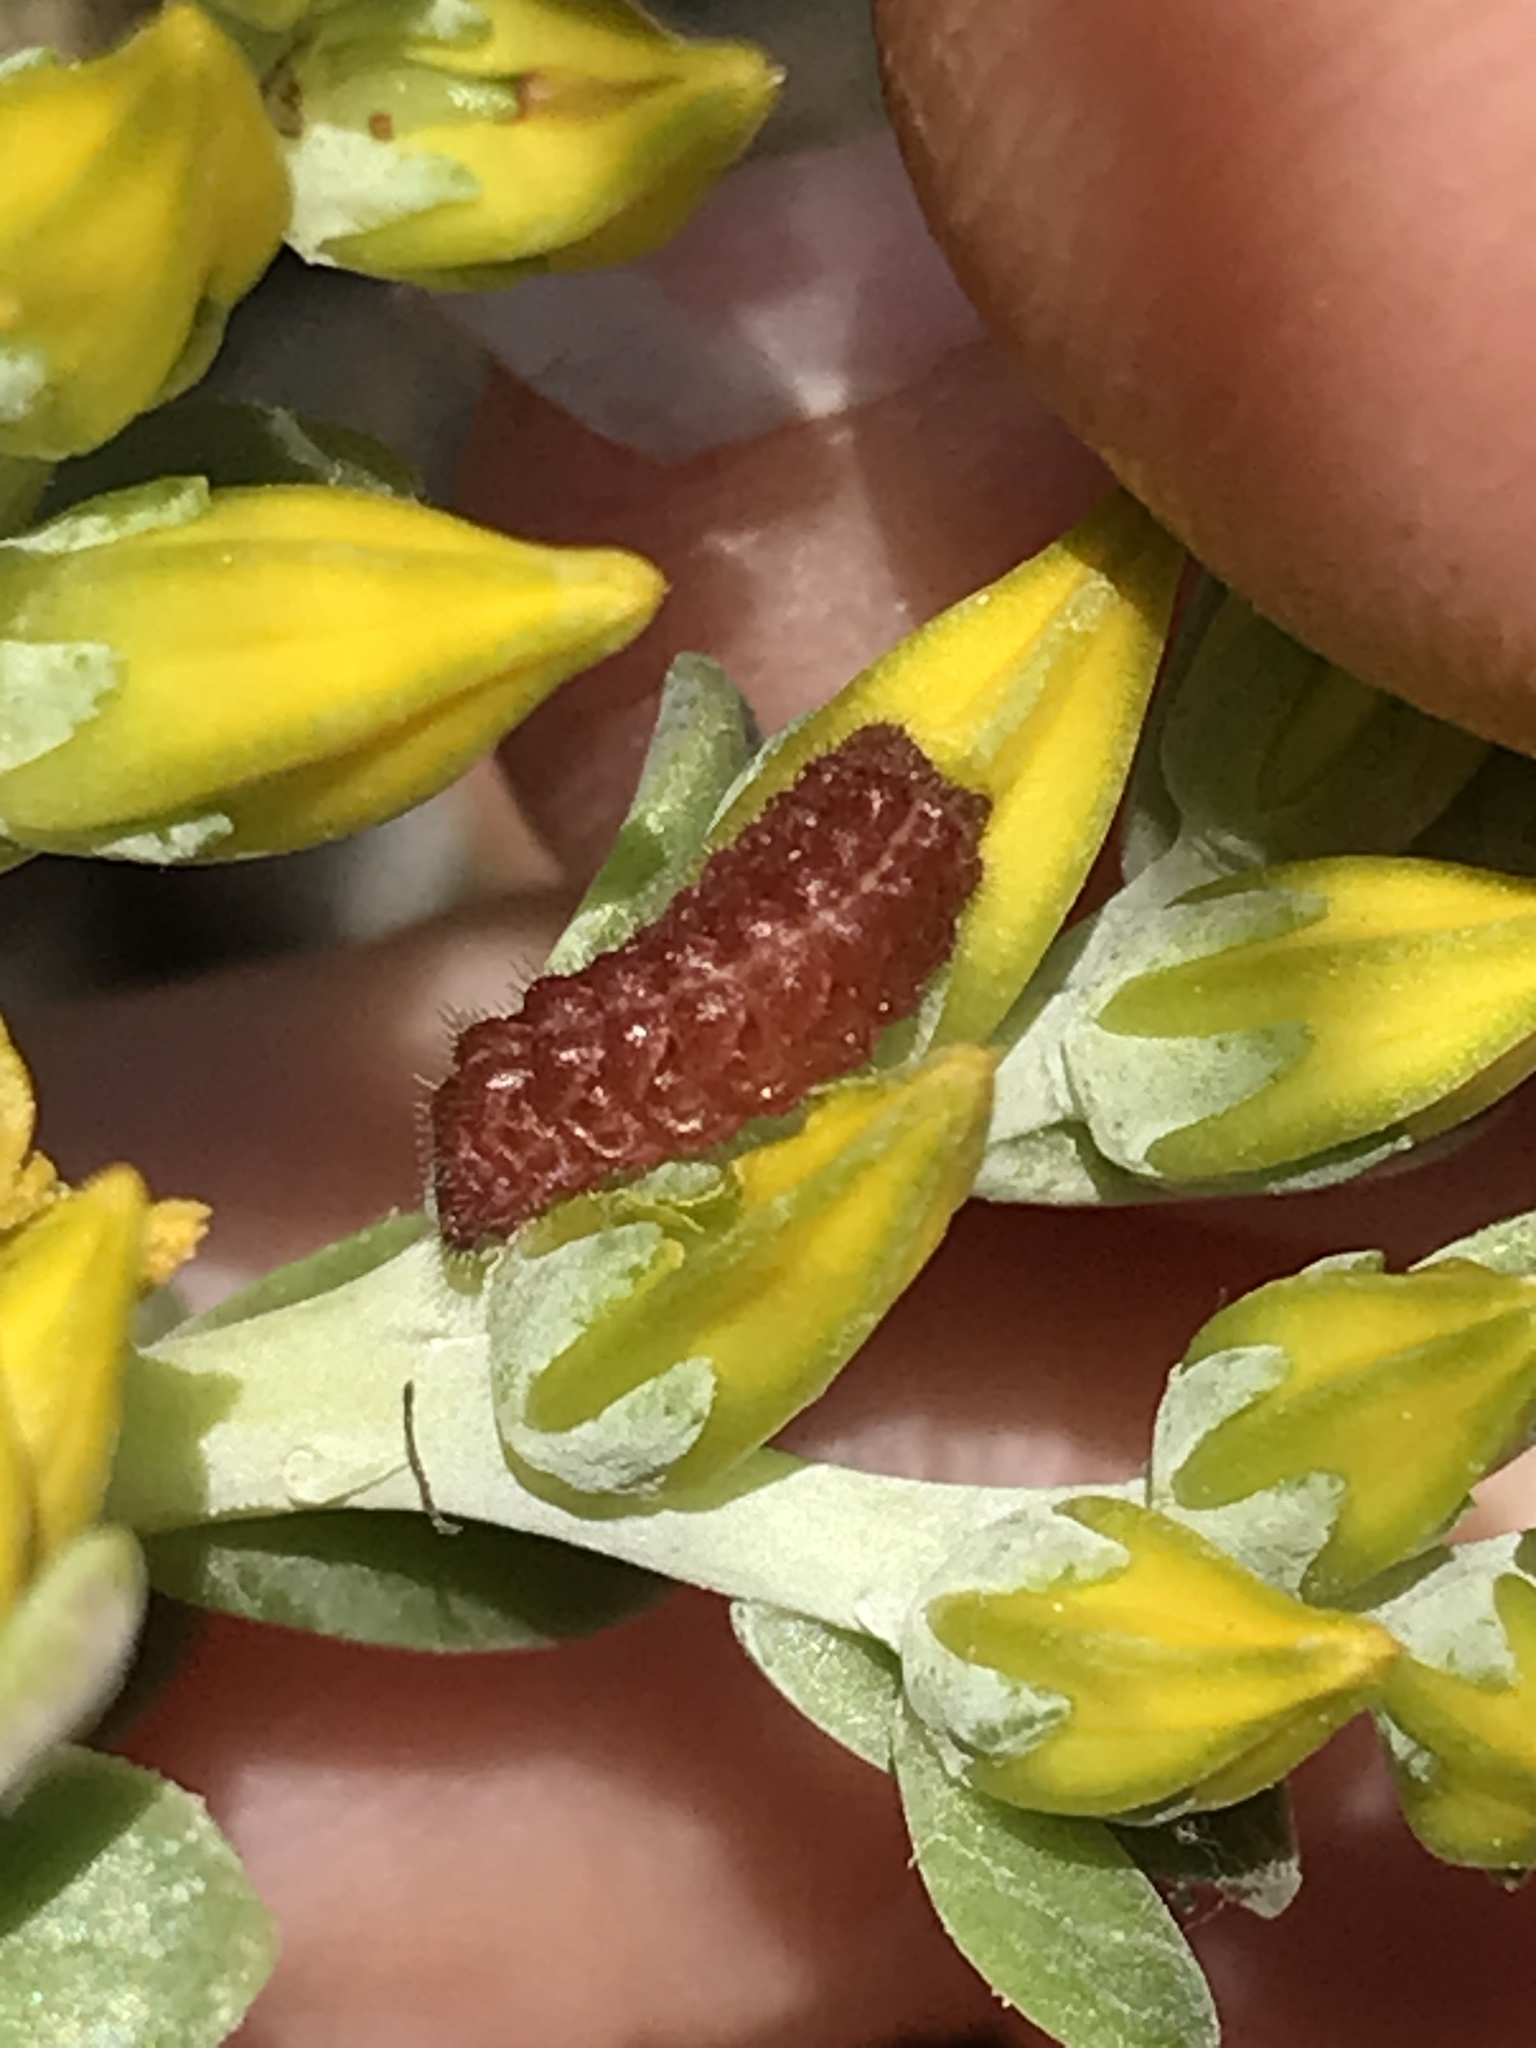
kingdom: Animalia
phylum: Arthropoda
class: Insecta
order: Lepidoptera
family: Lycaenidae
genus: Callophrys
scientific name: Callophrys mossii
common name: Moss' elfin
